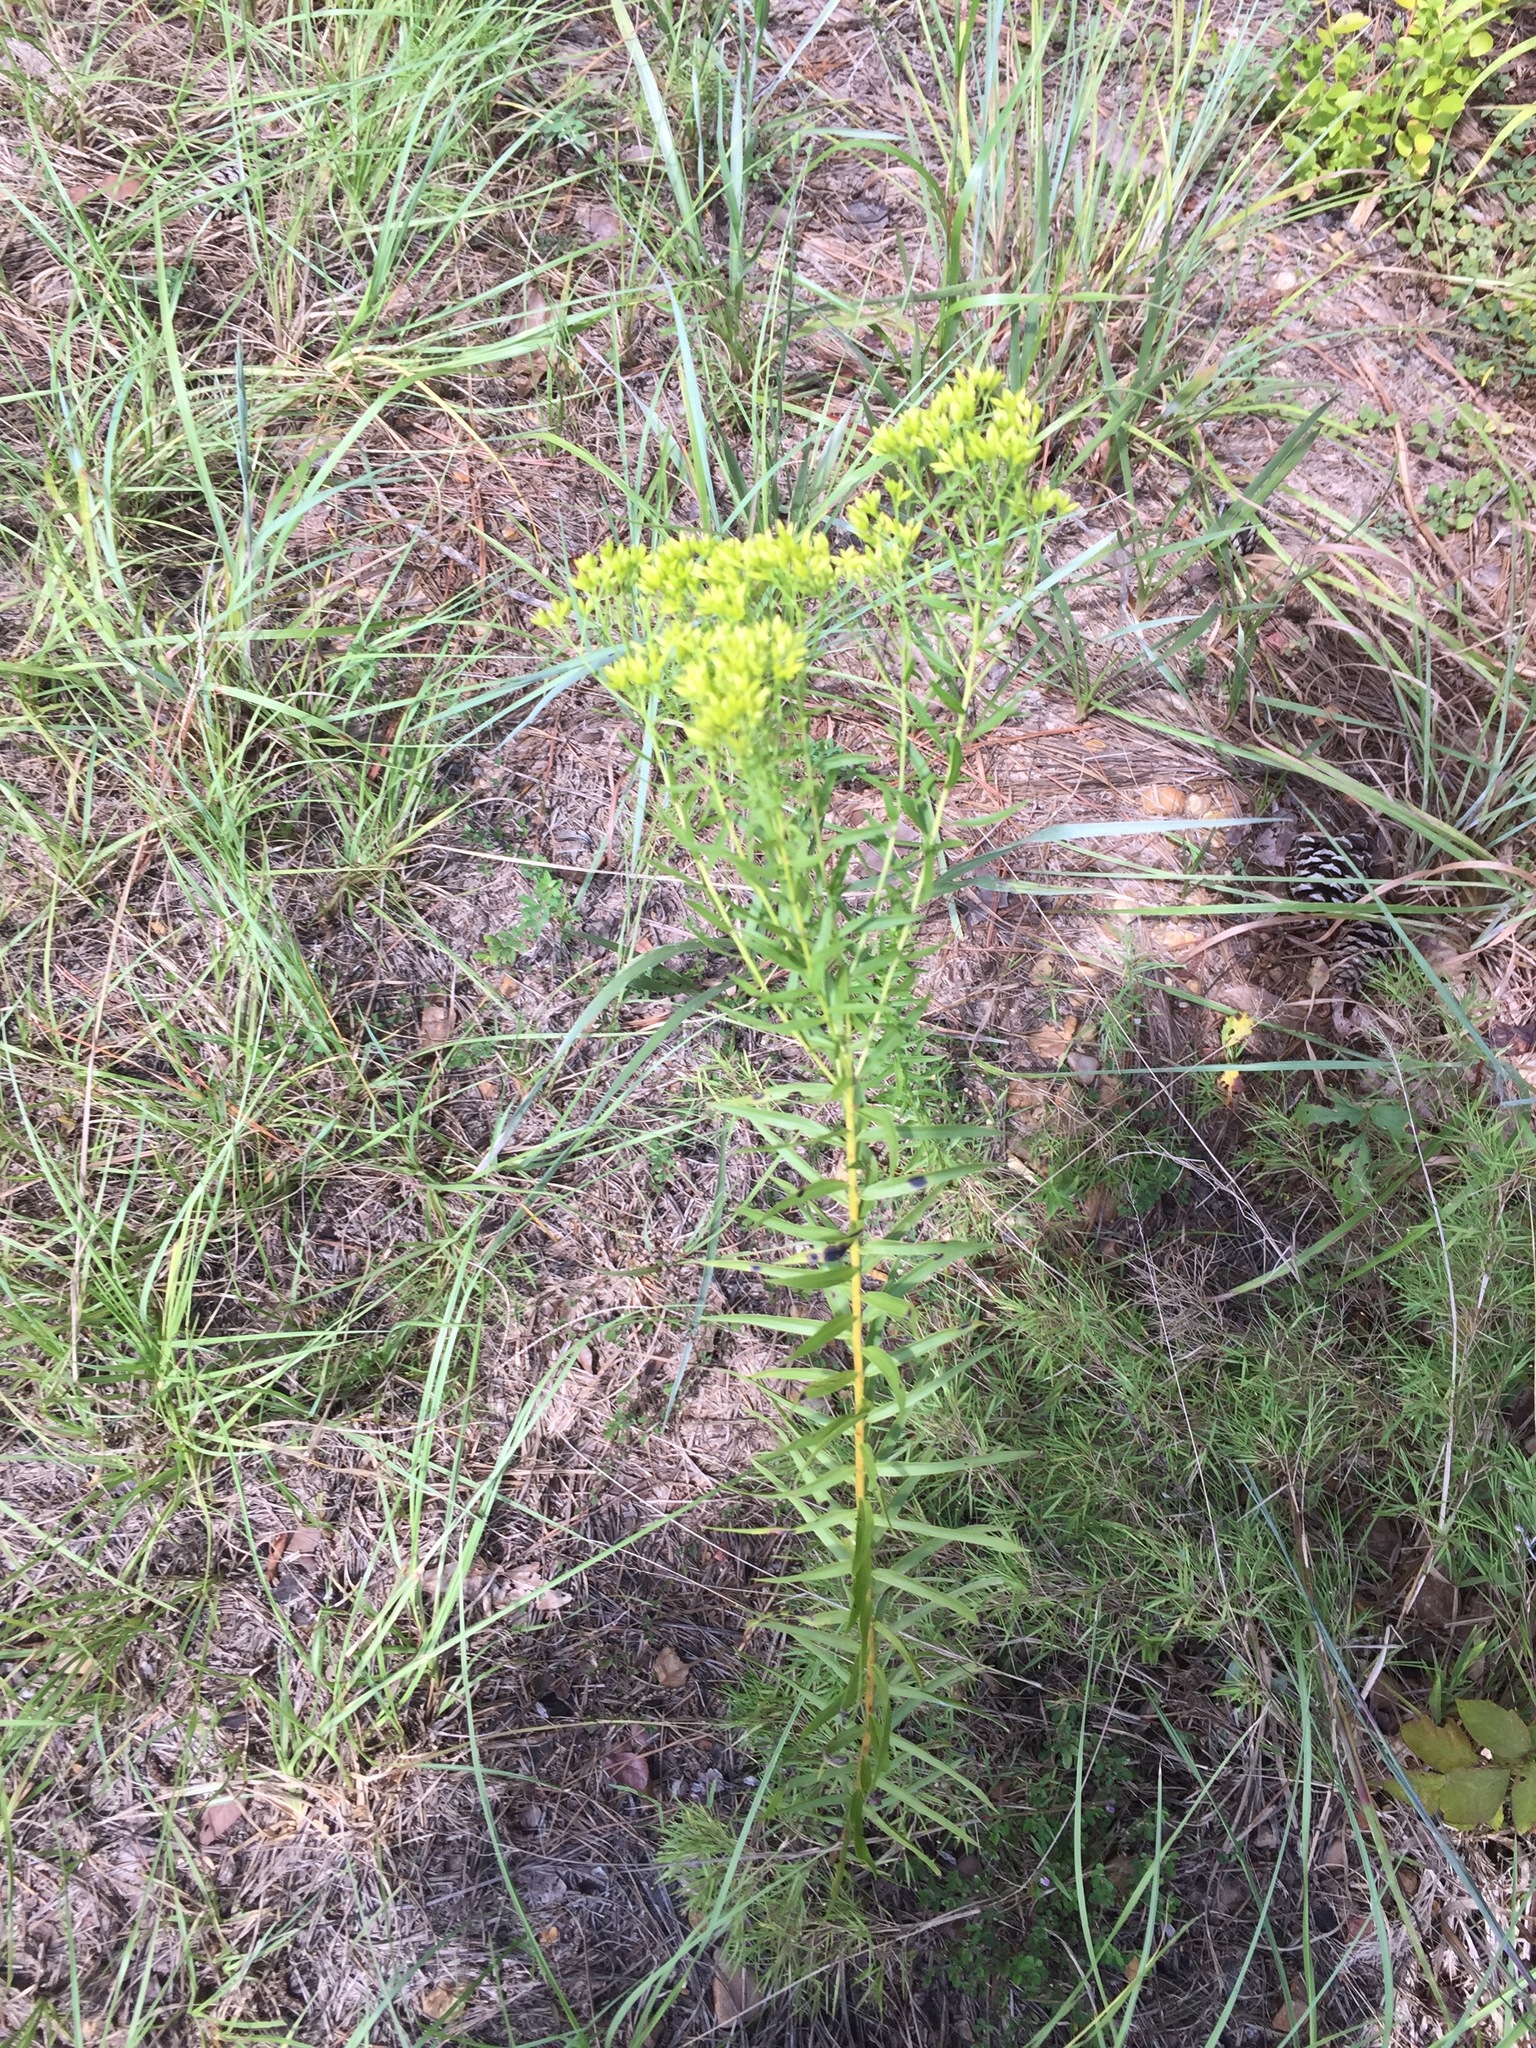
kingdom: Plantae
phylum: Tracheophyta
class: Magnoliopsida
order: Asterales
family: Asteraceae
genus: Euthamia
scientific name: Euthamia leptocephala
